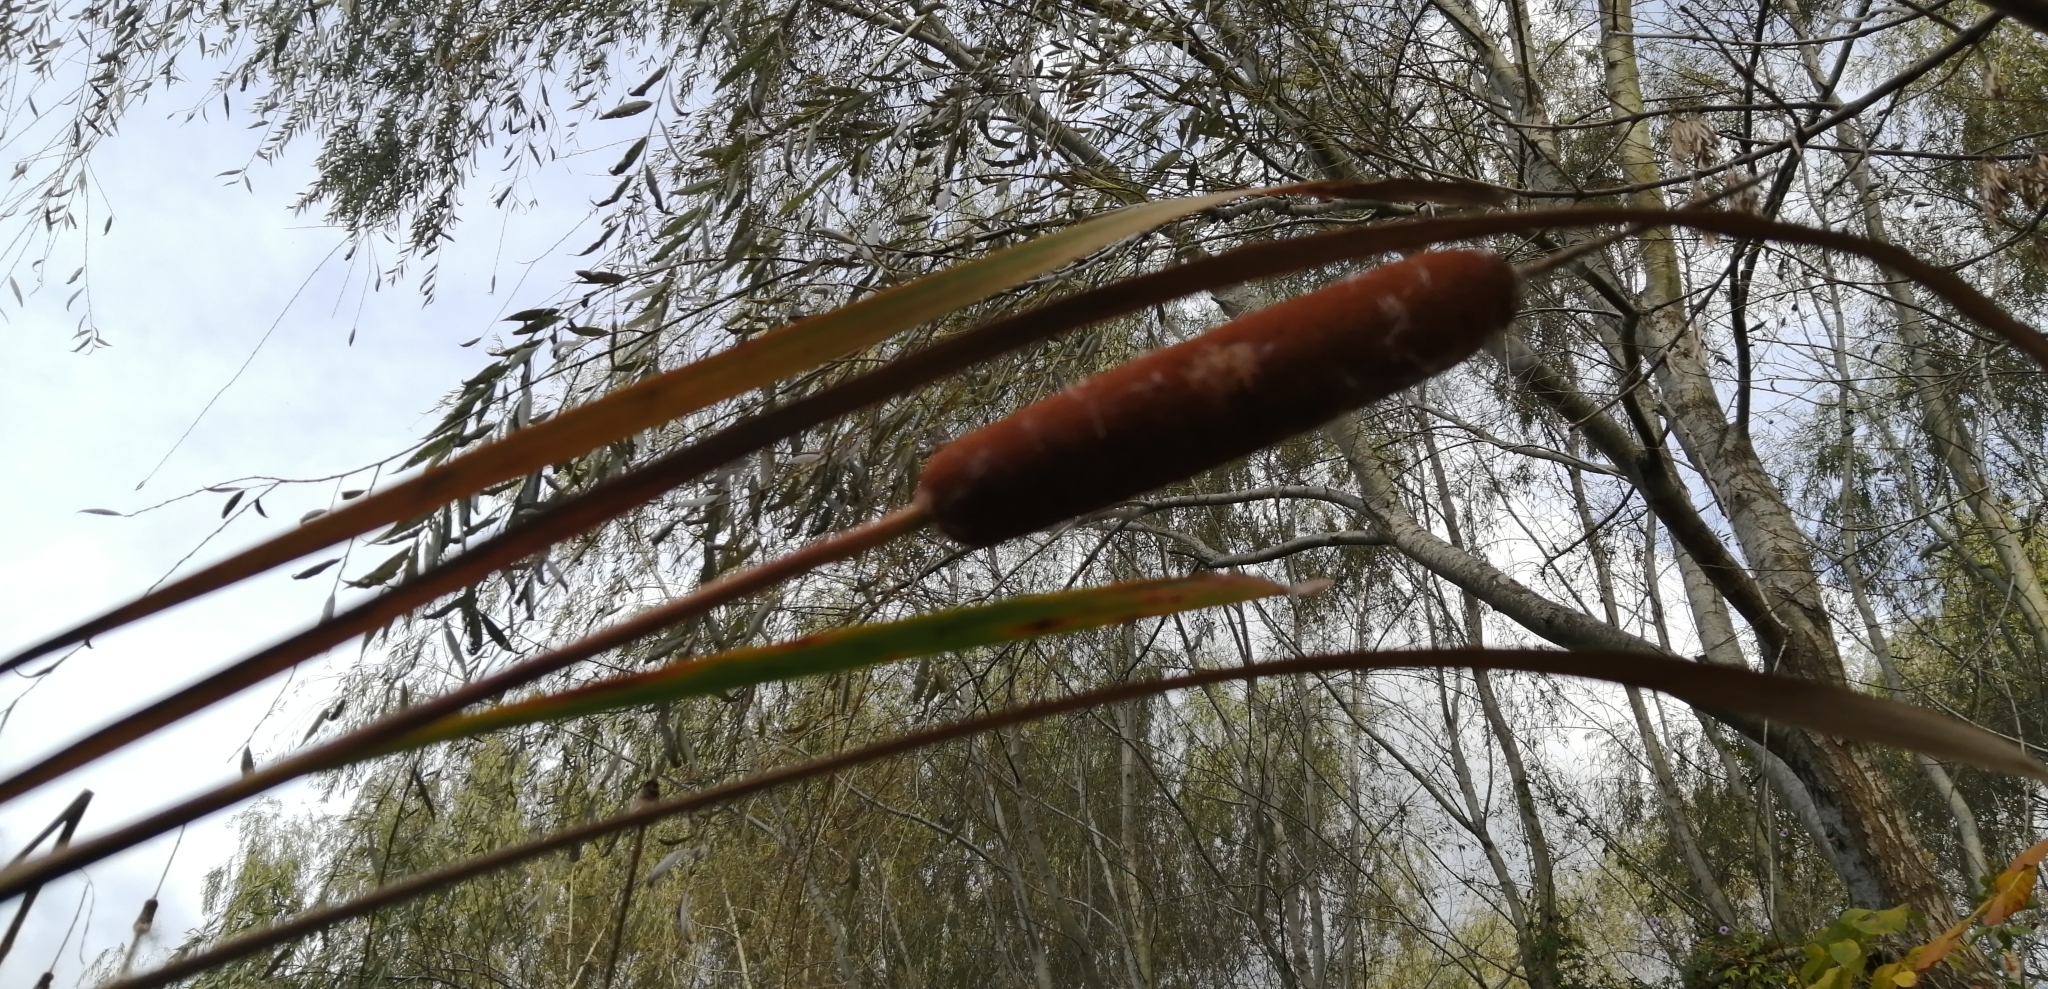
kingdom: Plantae
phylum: Tracheophyta
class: Liliopsida
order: Poales
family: Typhaceae
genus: Typha
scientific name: Typha latifolia
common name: Broadleaf cattail
